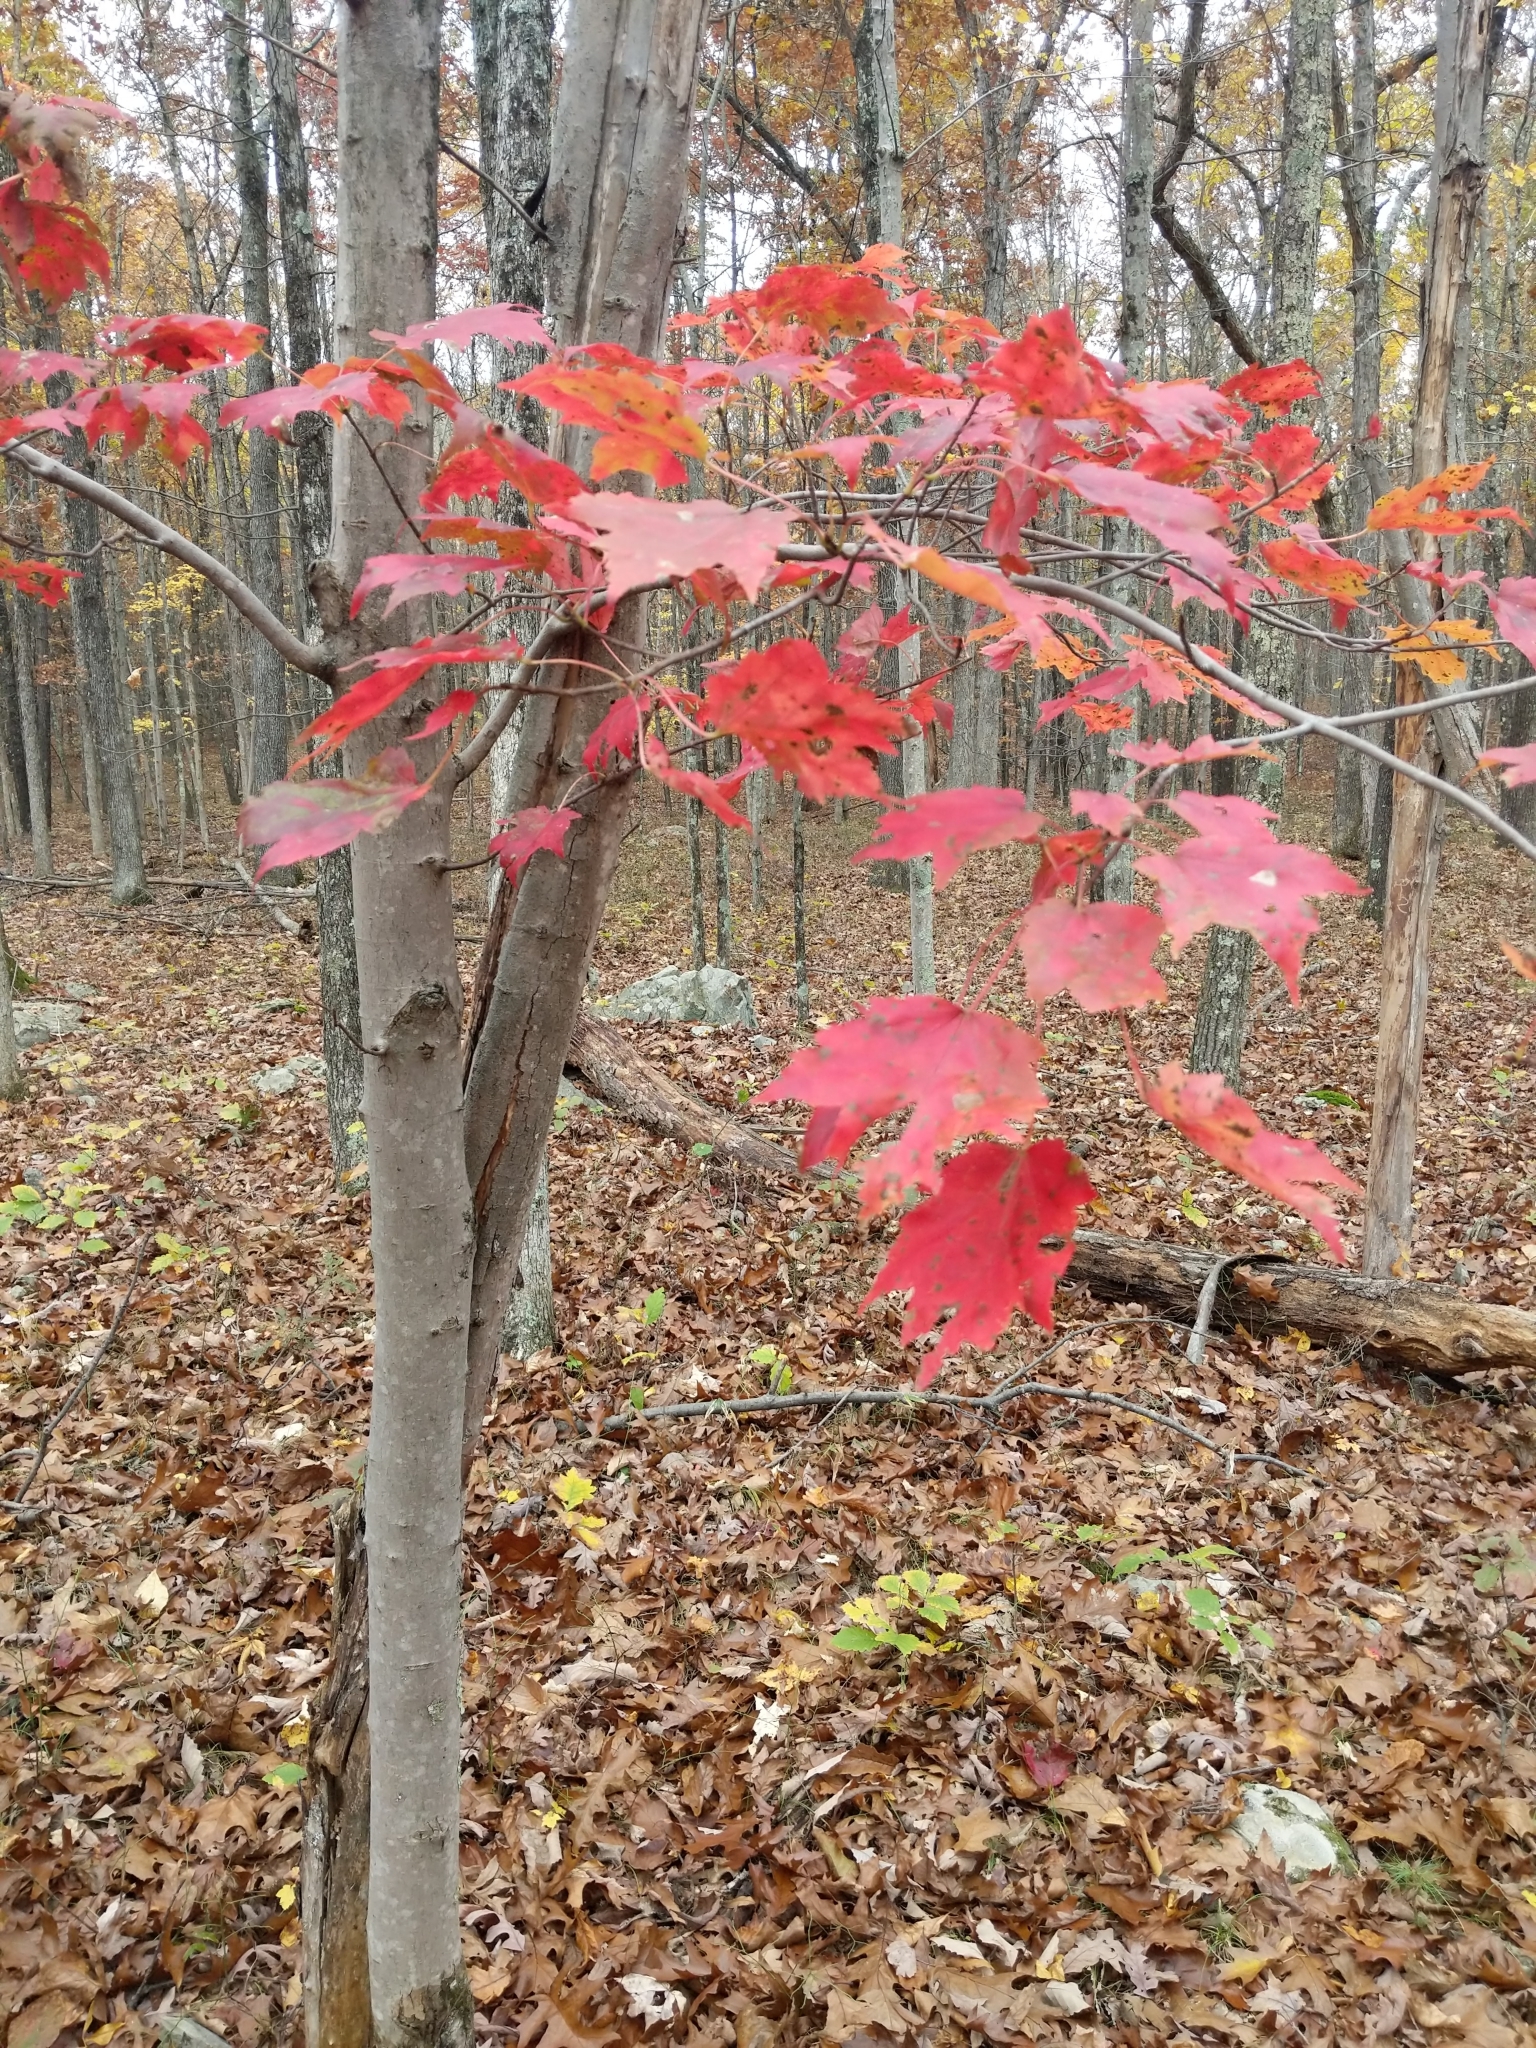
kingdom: Plantae
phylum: Tracheophyta
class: Magnoliopsida
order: Sapindales
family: Sapindaceae
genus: Acer
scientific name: Acer rubrum
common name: Red maple
